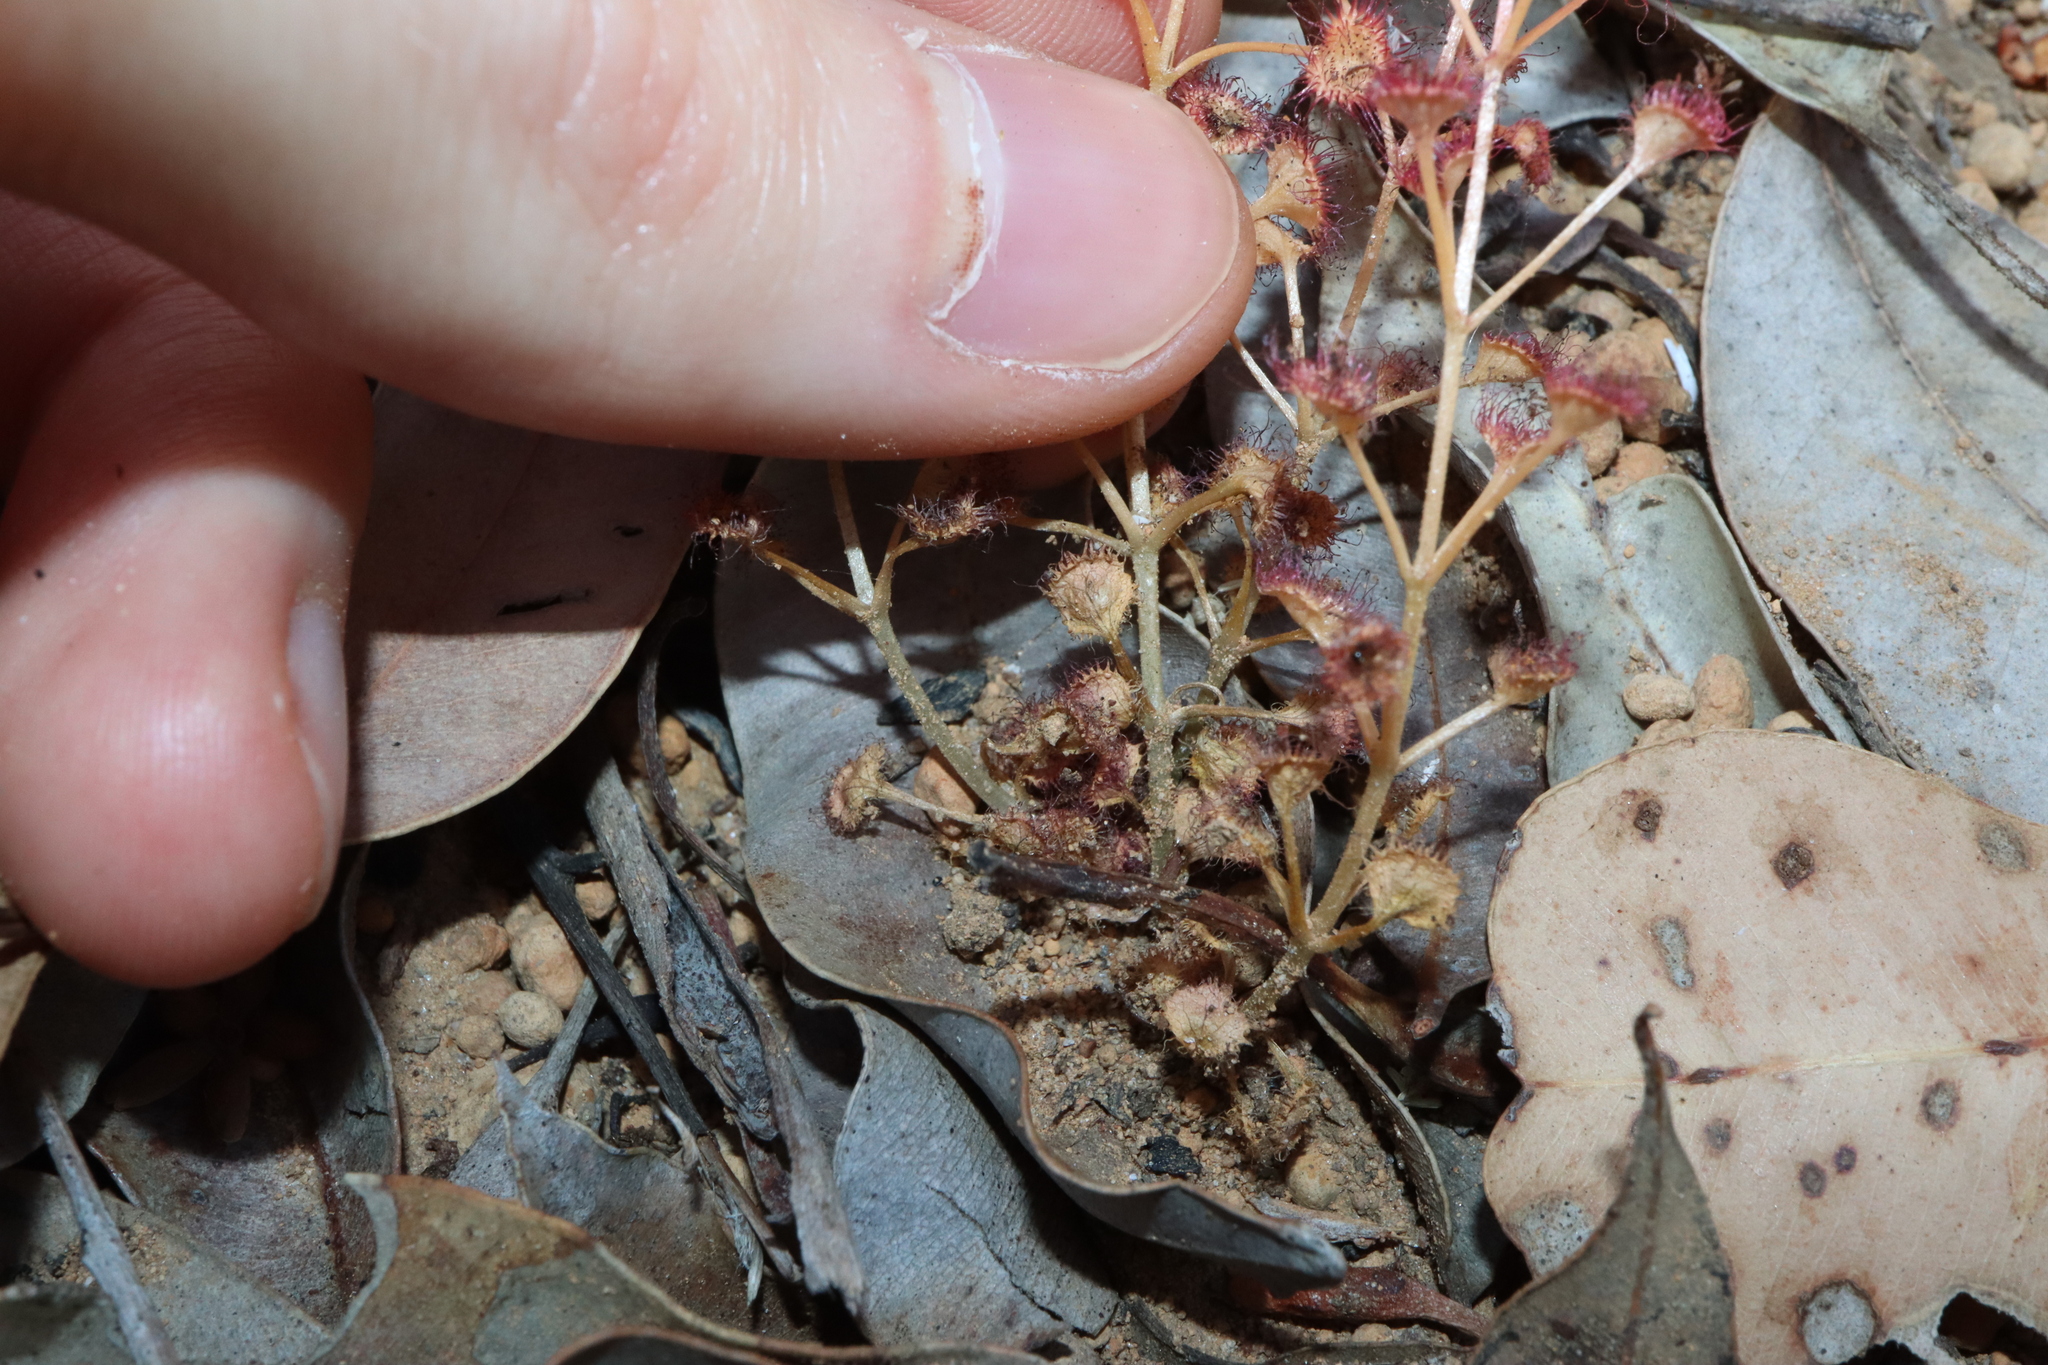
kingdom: Plantae
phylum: Tracheophyta
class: Magnoliopsida
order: Caryophyllales
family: Droseraceae
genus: Drosera
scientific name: Drosera stolonifera
